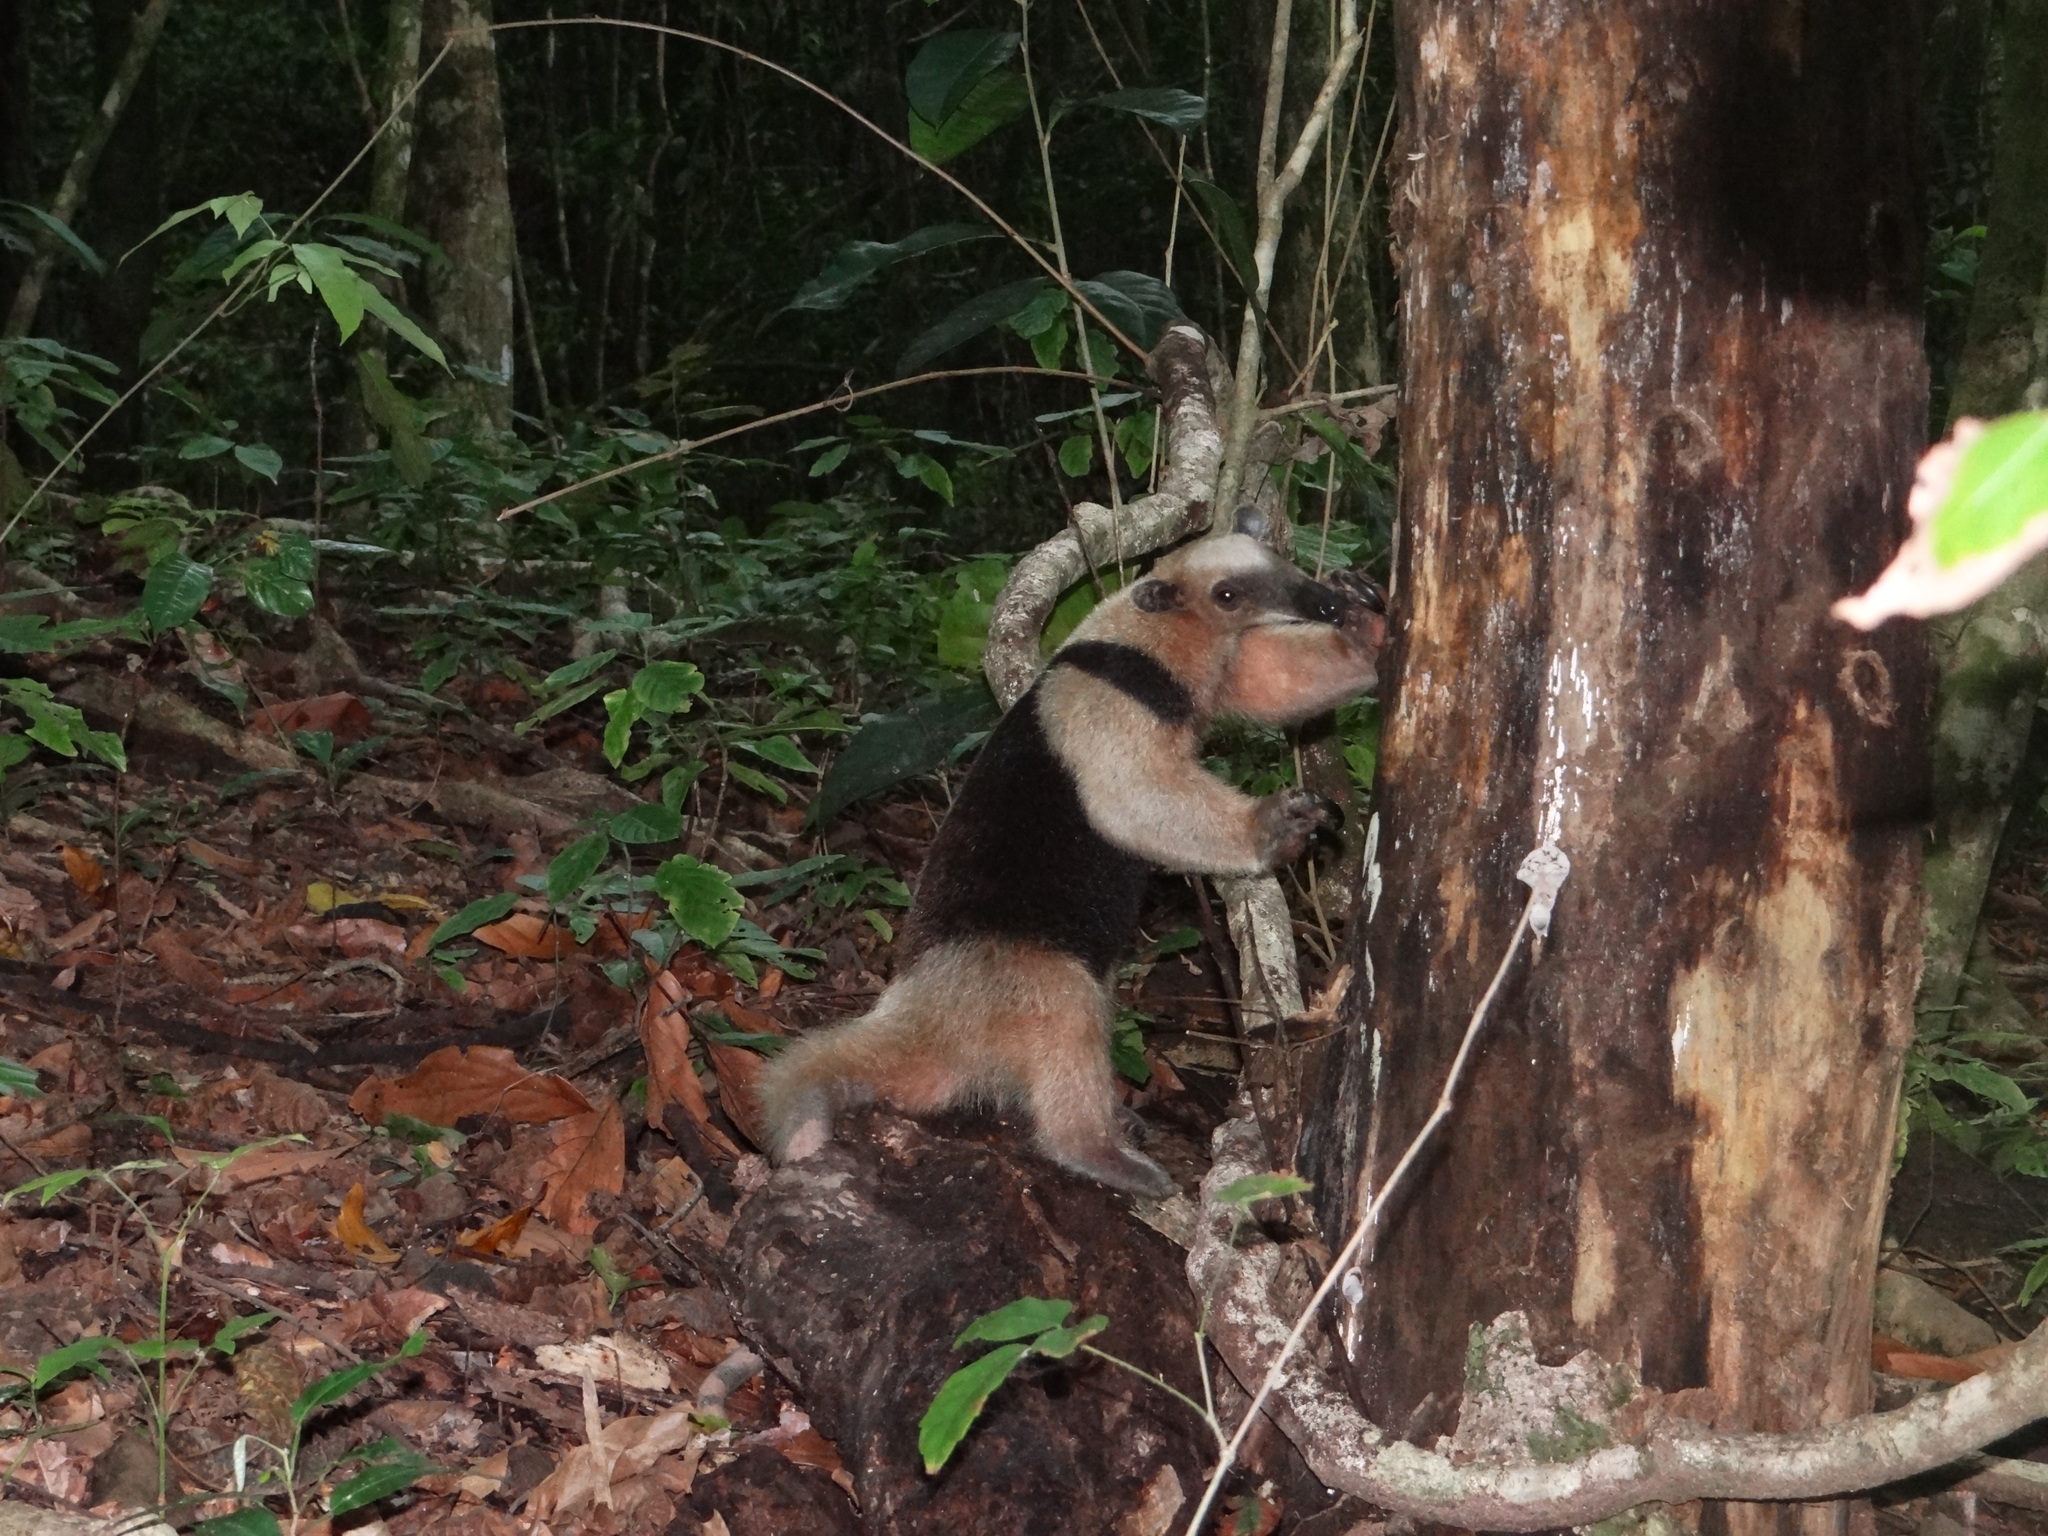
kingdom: Animalia
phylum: Chordata
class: Mammalia
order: Pilosa
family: Myrmecophagidae
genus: Tamandua
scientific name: Tamandua mexicana
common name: Northern tamandua
